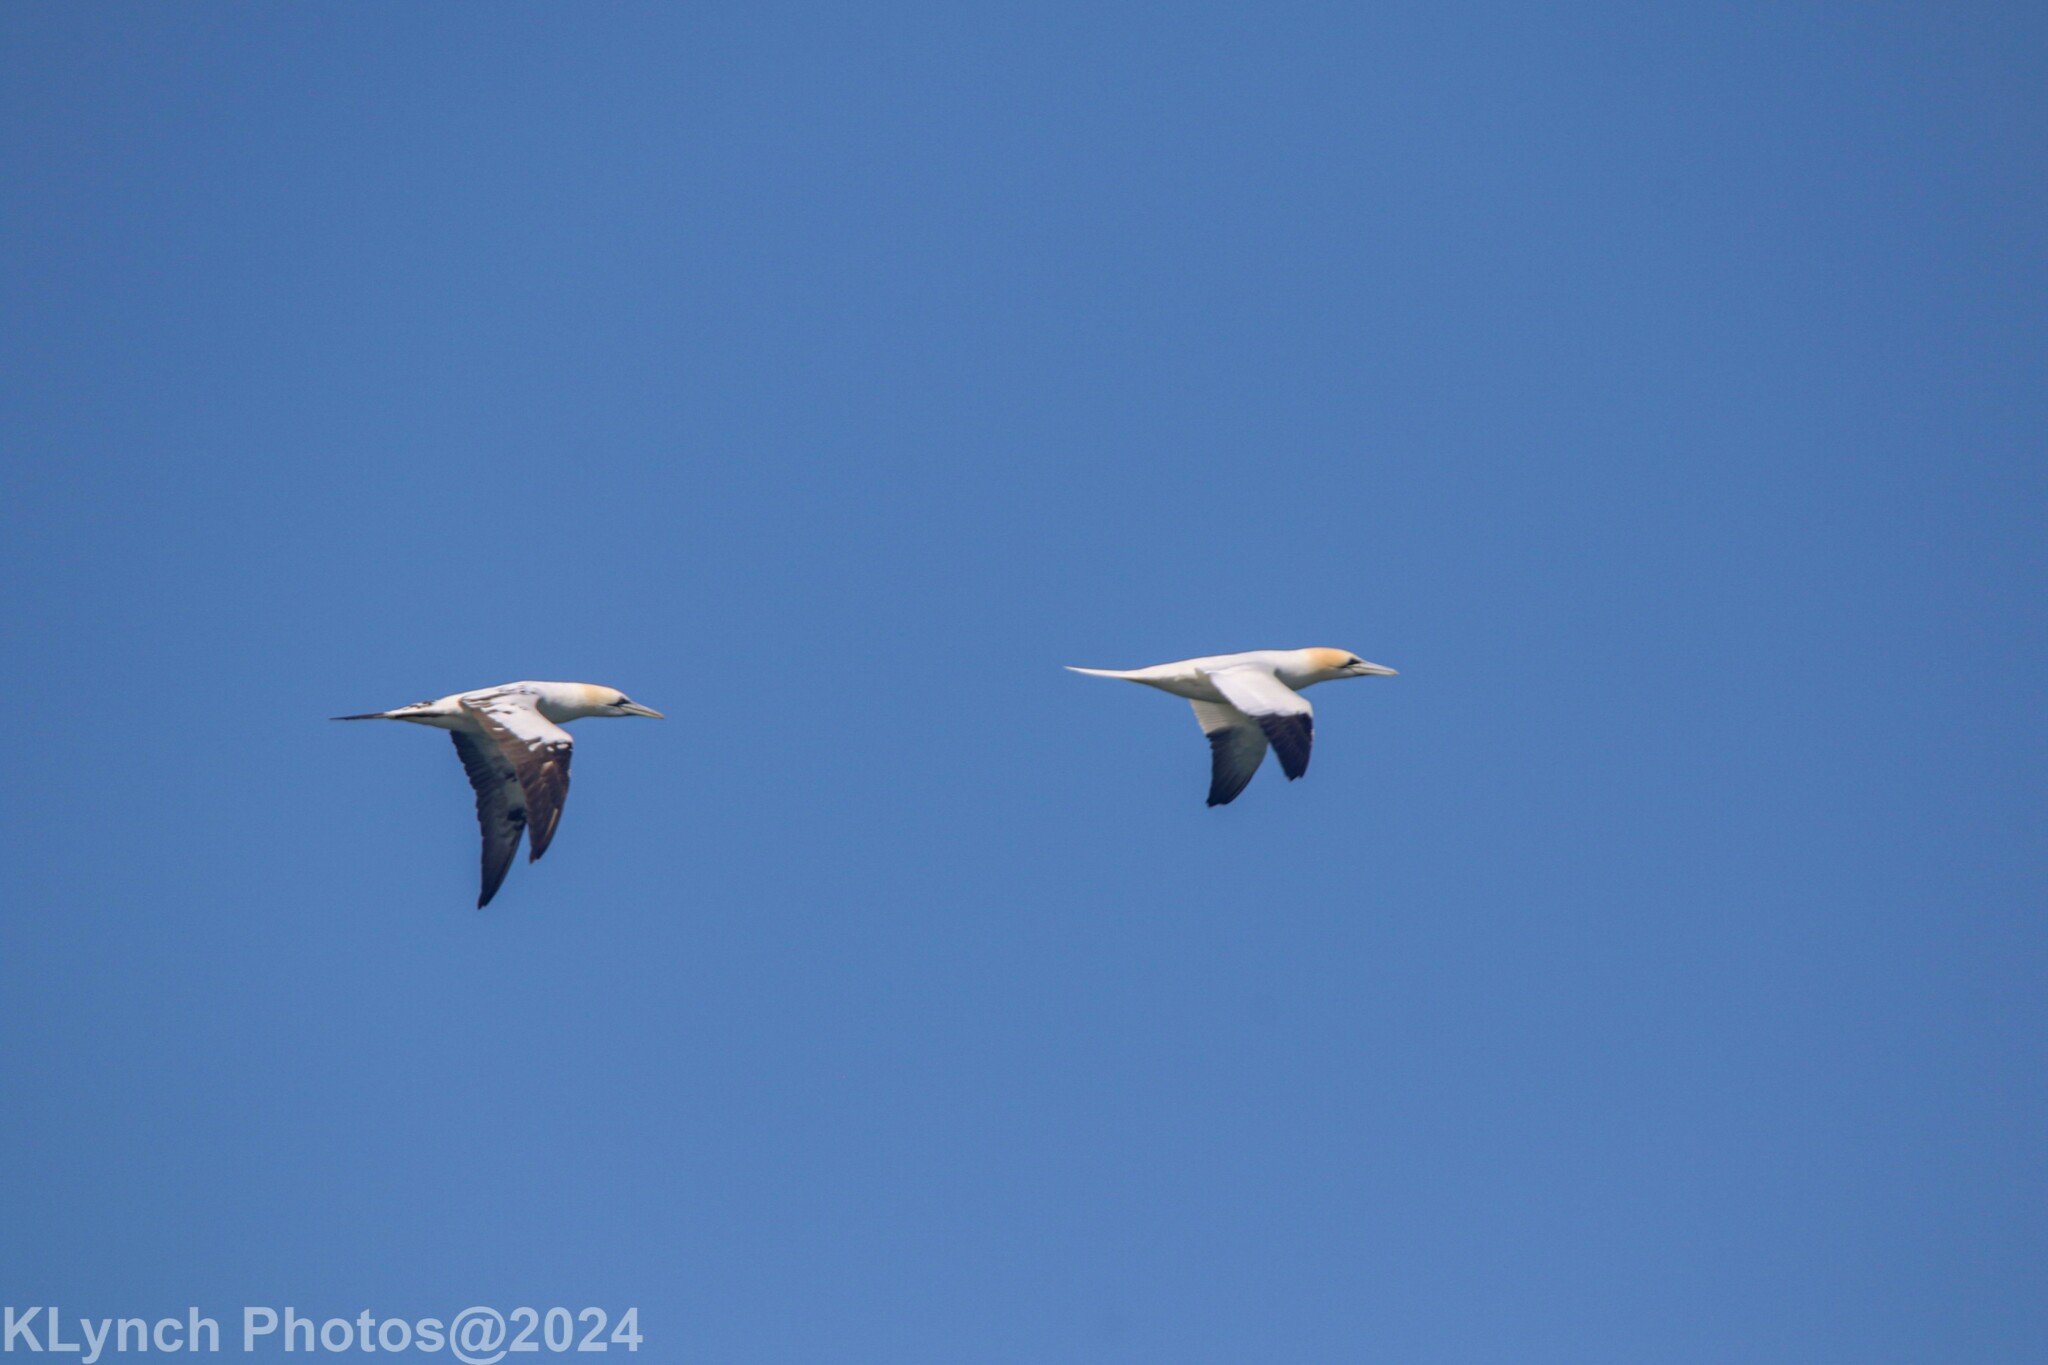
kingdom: Animalia
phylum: Chordata
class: Aves
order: Suliformes
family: Sulidae
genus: Morus
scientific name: Morus bassanus
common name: Northern gannet
